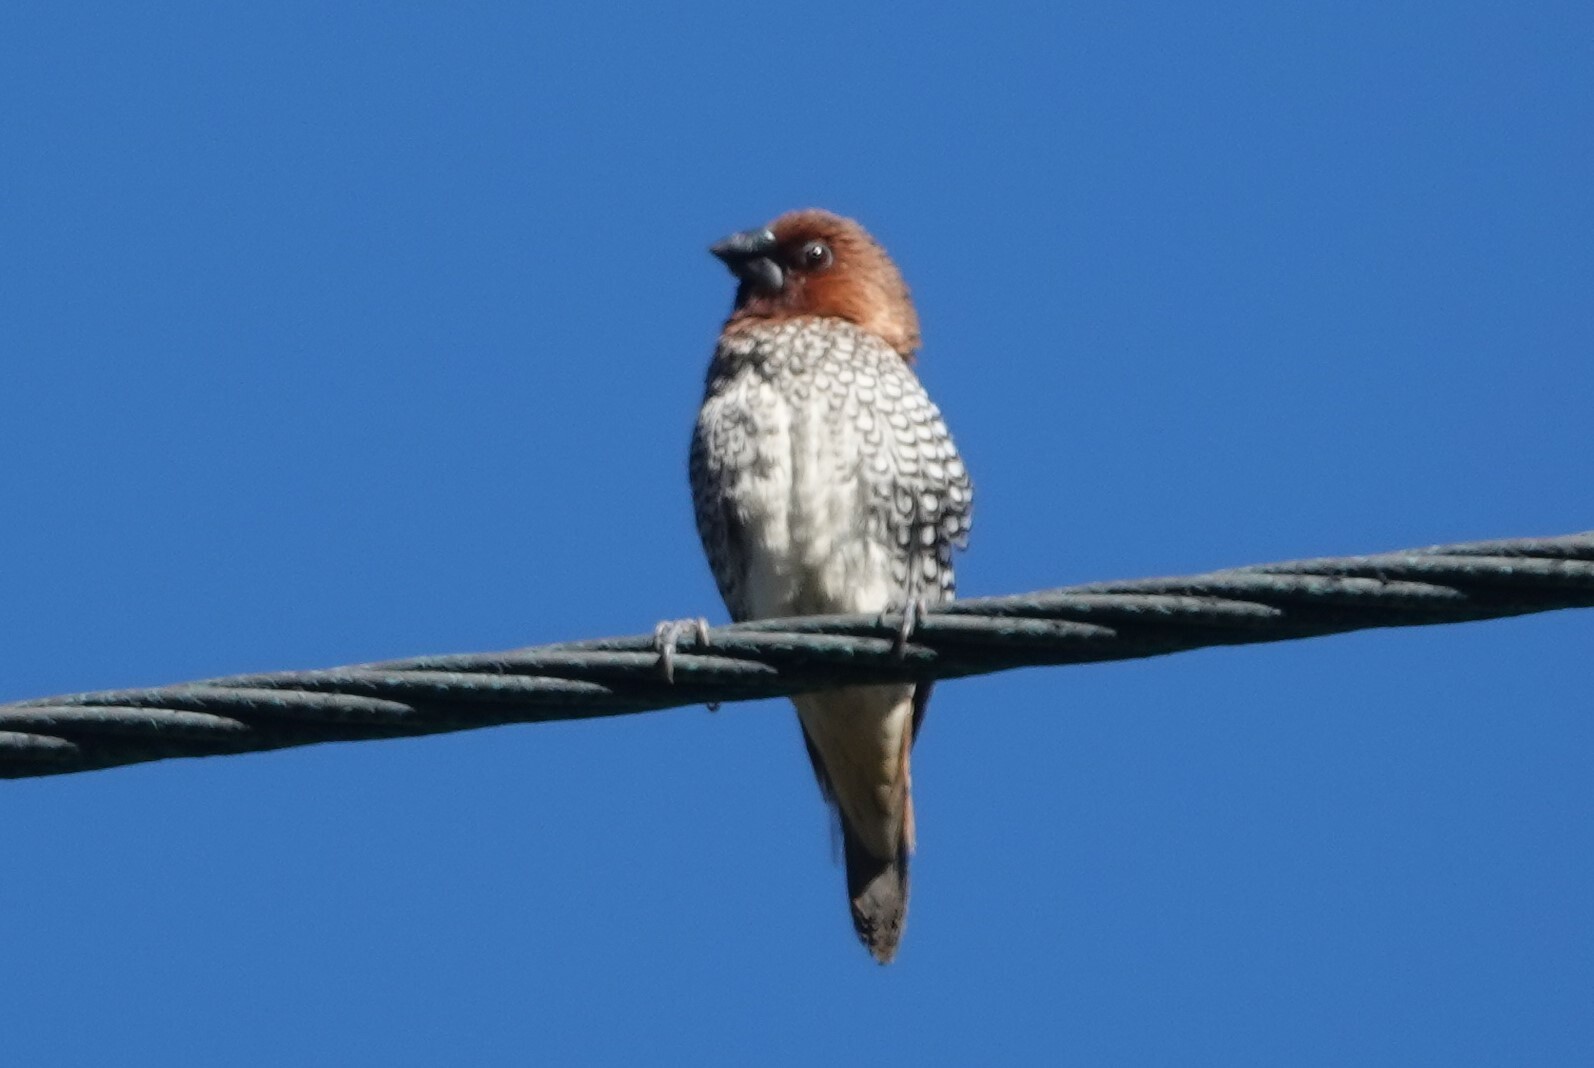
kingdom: Animalia
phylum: Chordata
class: Aves
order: Passeriformes
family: Estrildidae
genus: Lonchura
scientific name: Lonchura punctulata
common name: Scaly-breasted munia
